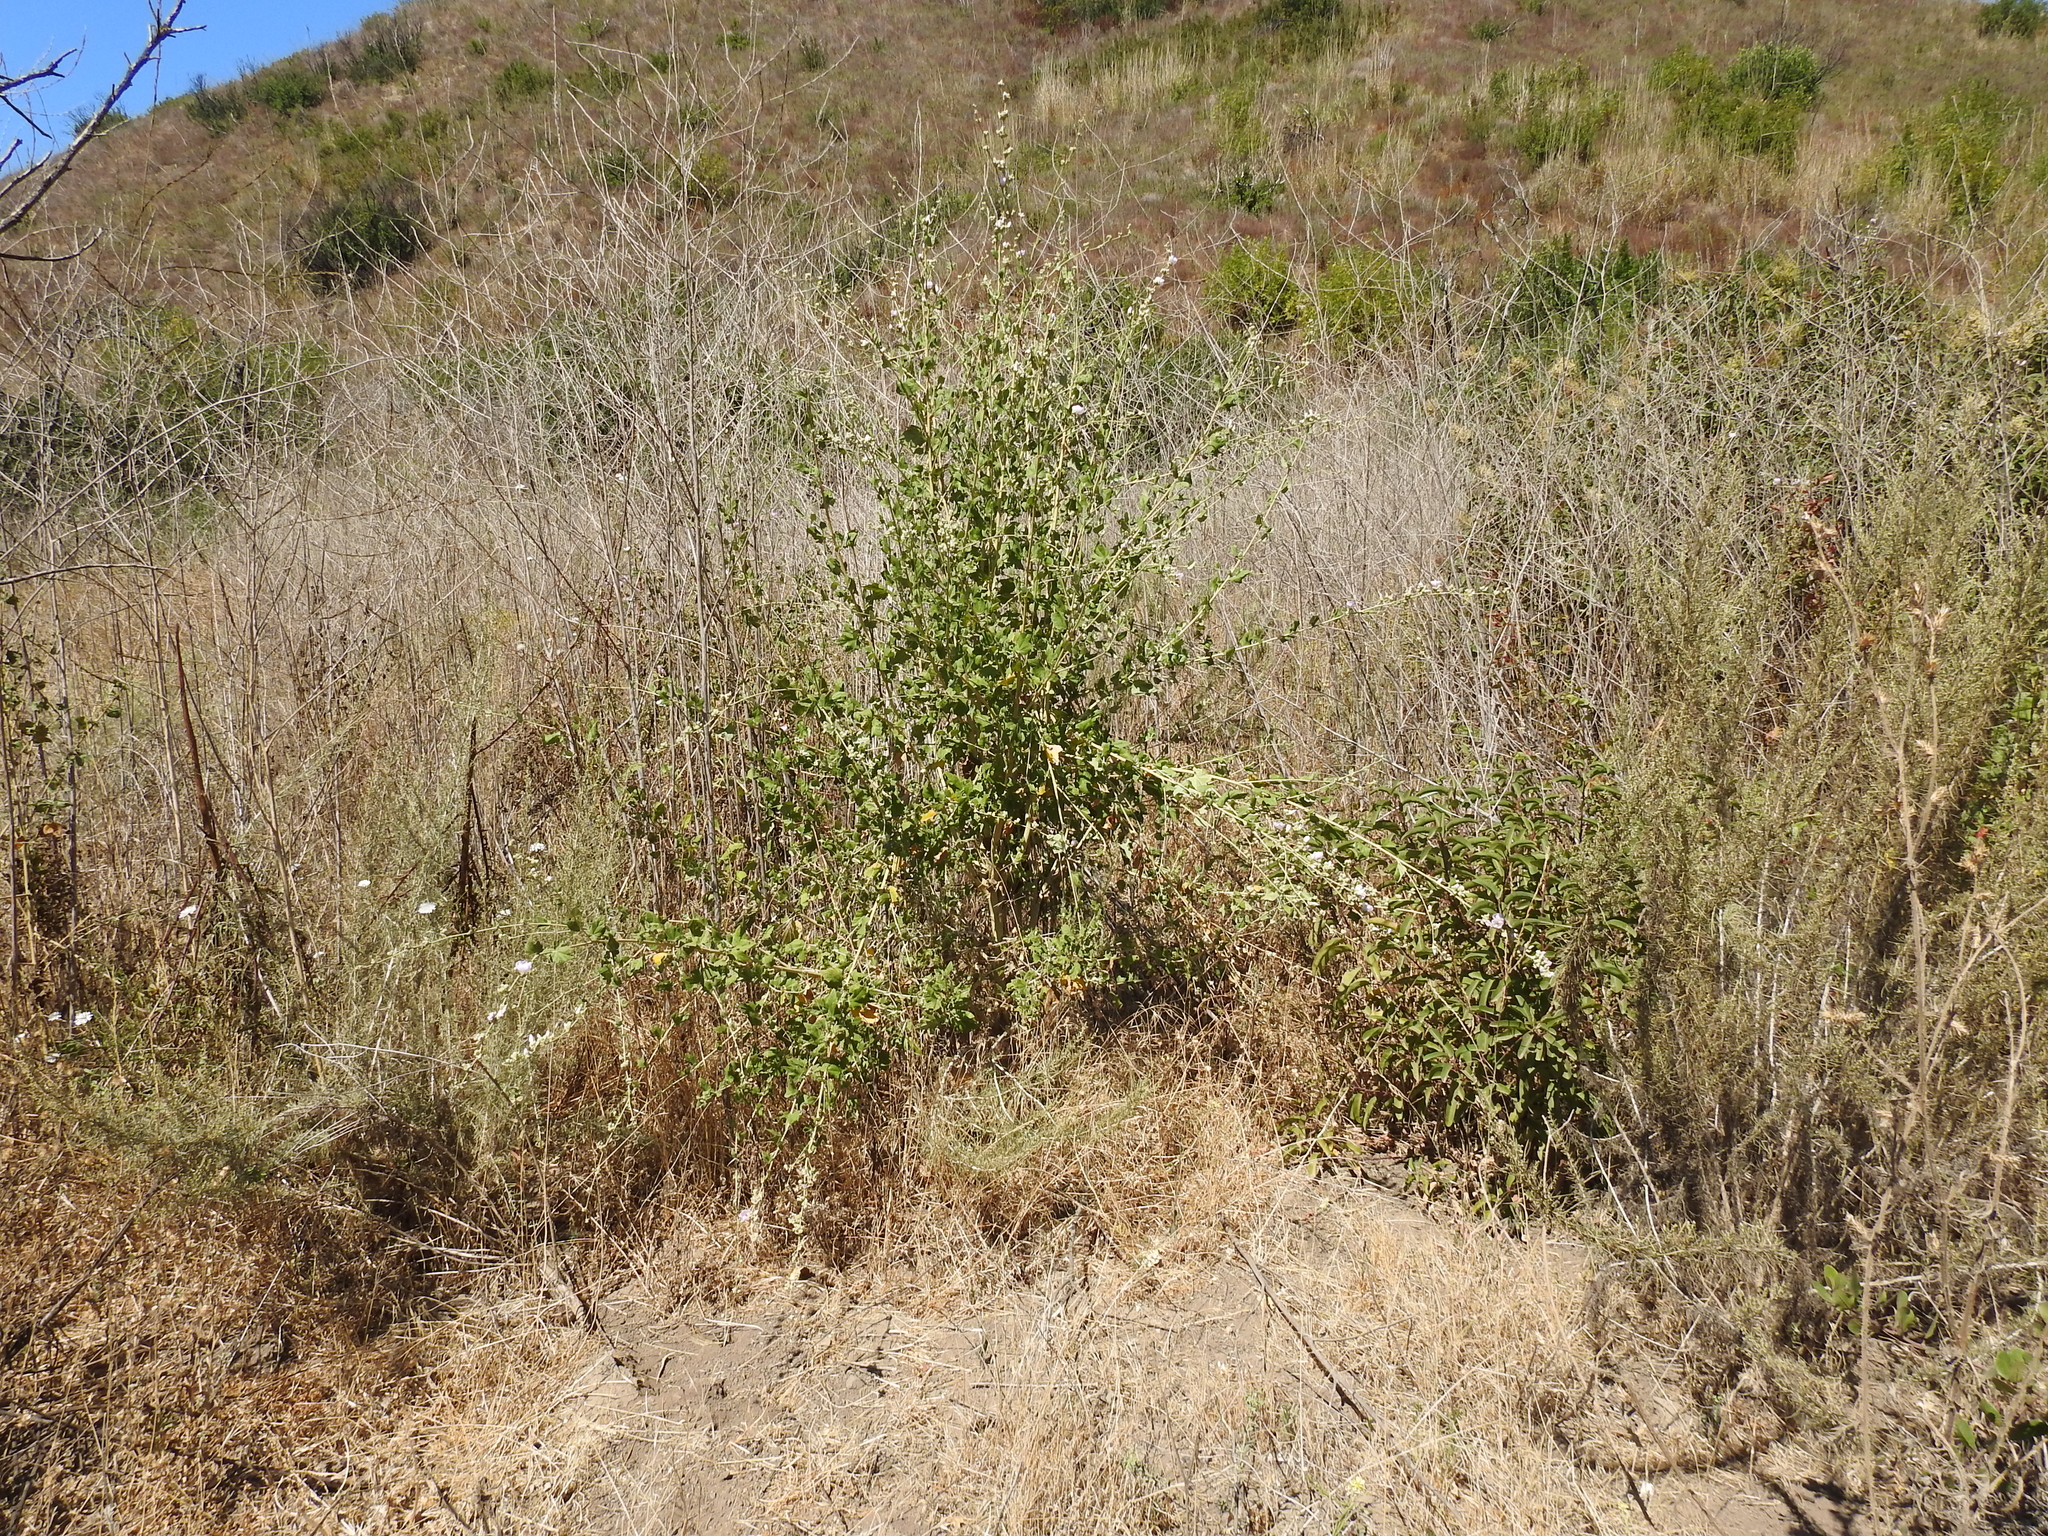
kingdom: Plantae
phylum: Tracheophyta
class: Magnoliopsida
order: Malvales
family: Malvaceae
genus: Malacothamnus
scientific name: Malacothamnus fasciculatus
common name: Sant cruz island bush-mallow
